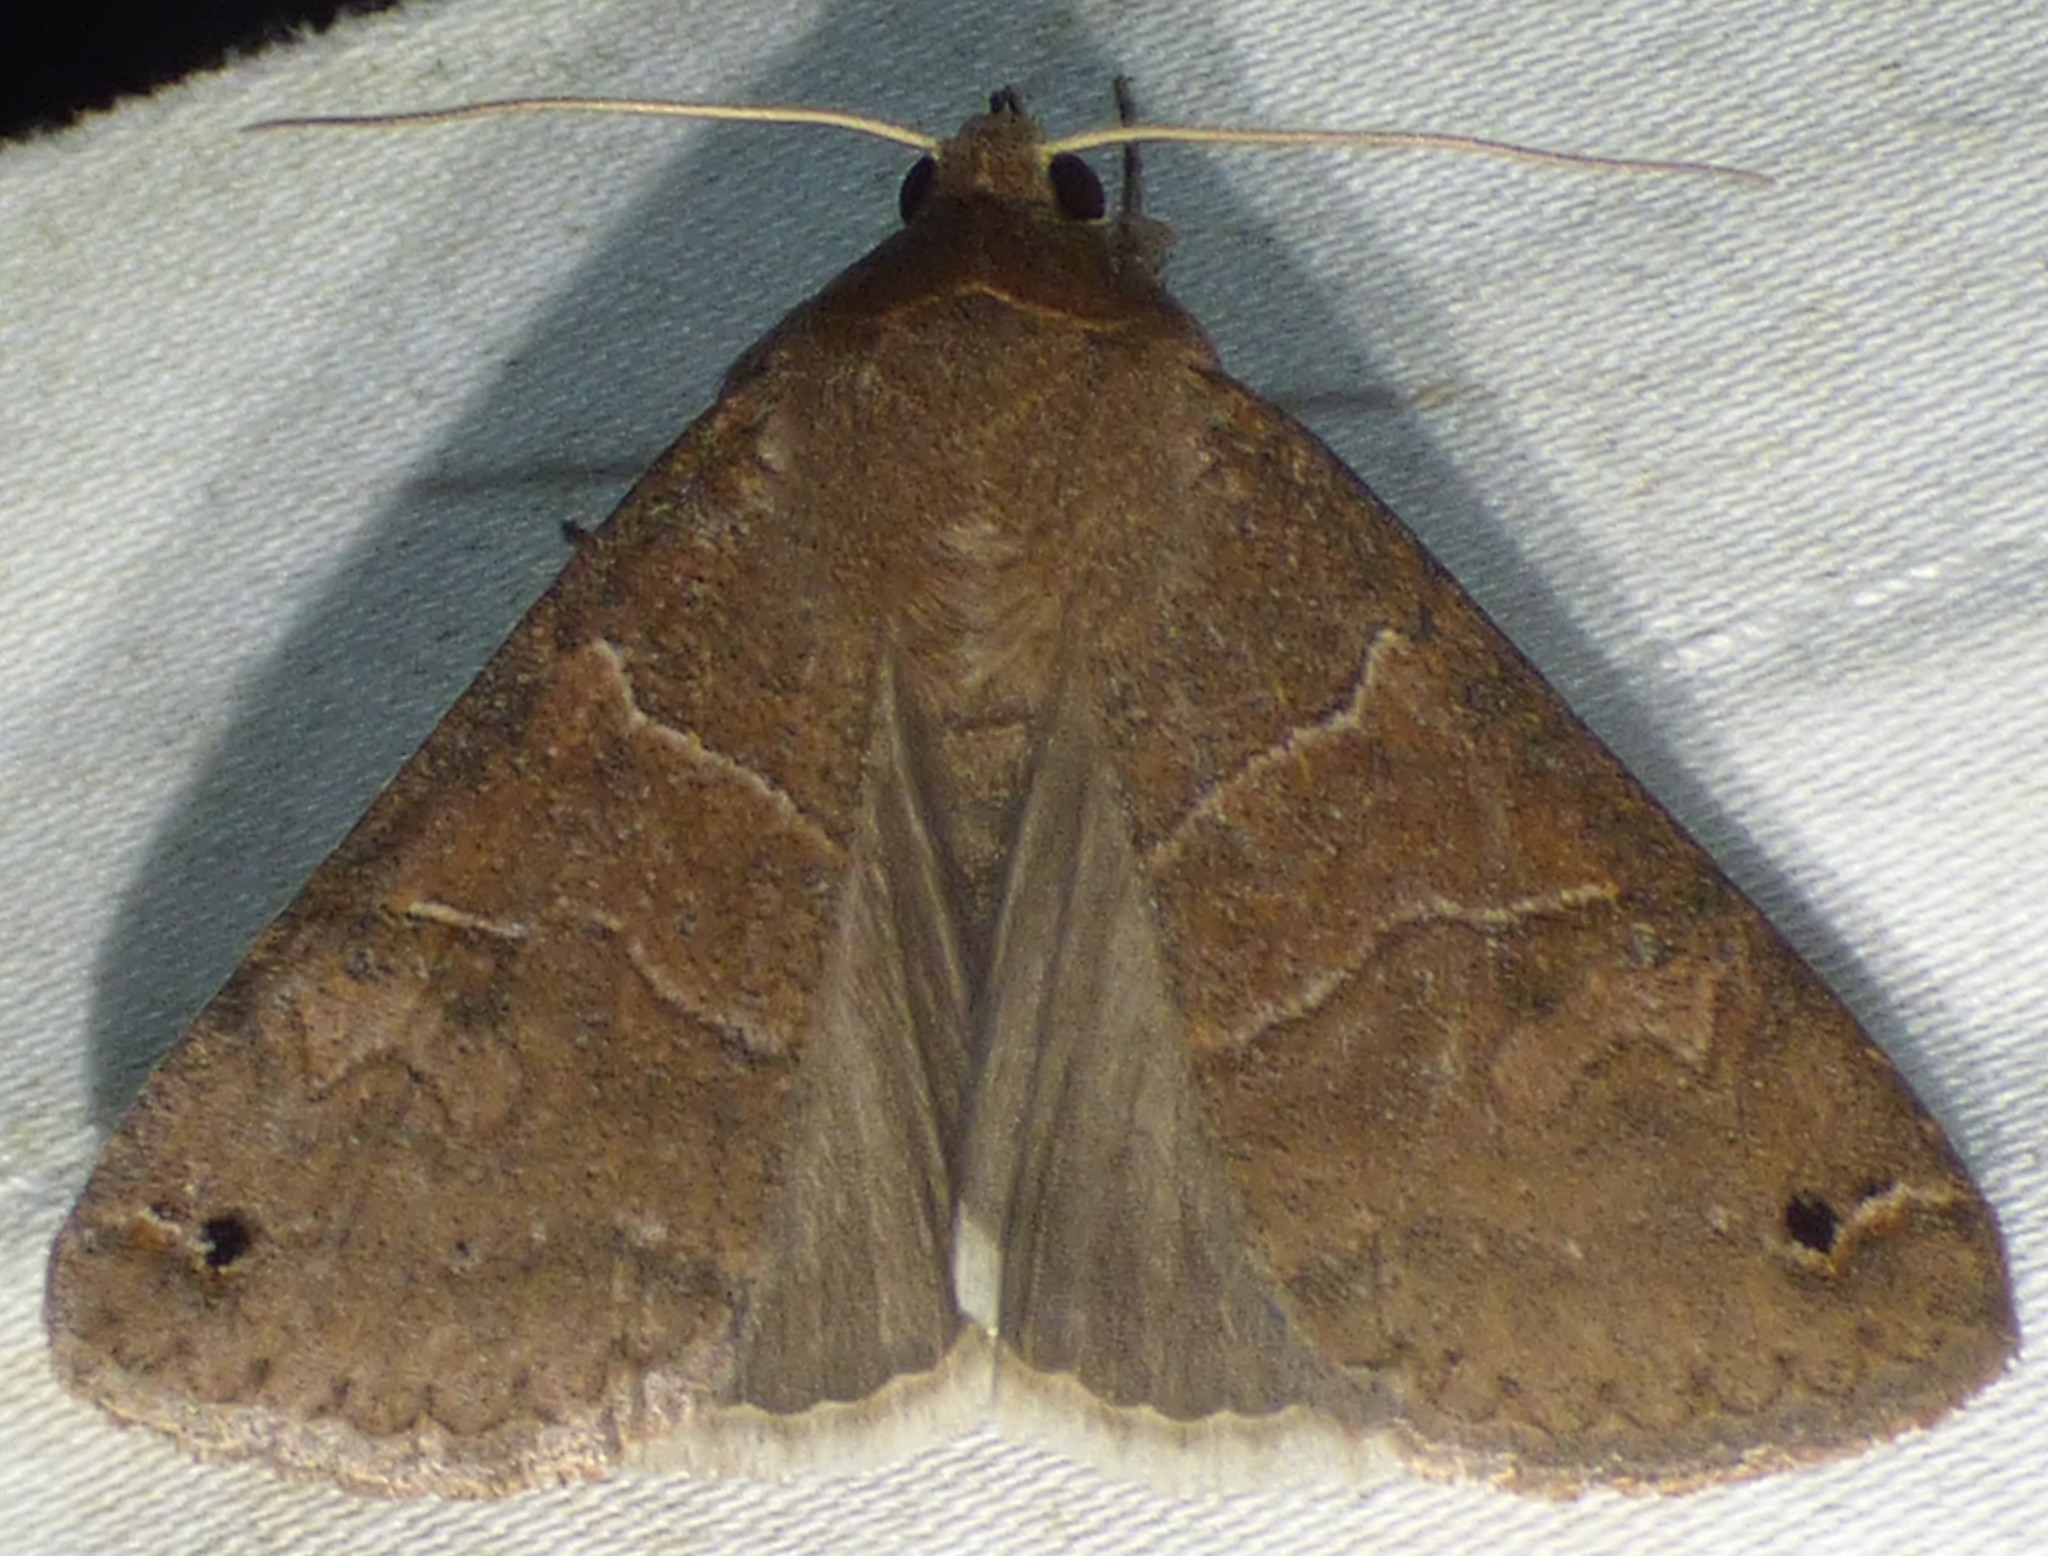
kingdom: Animalia
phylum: Arthropoda
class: Insecta
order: Lepidoptera
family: Erebidae
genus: Cissusa
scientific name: Cissusa spadix
